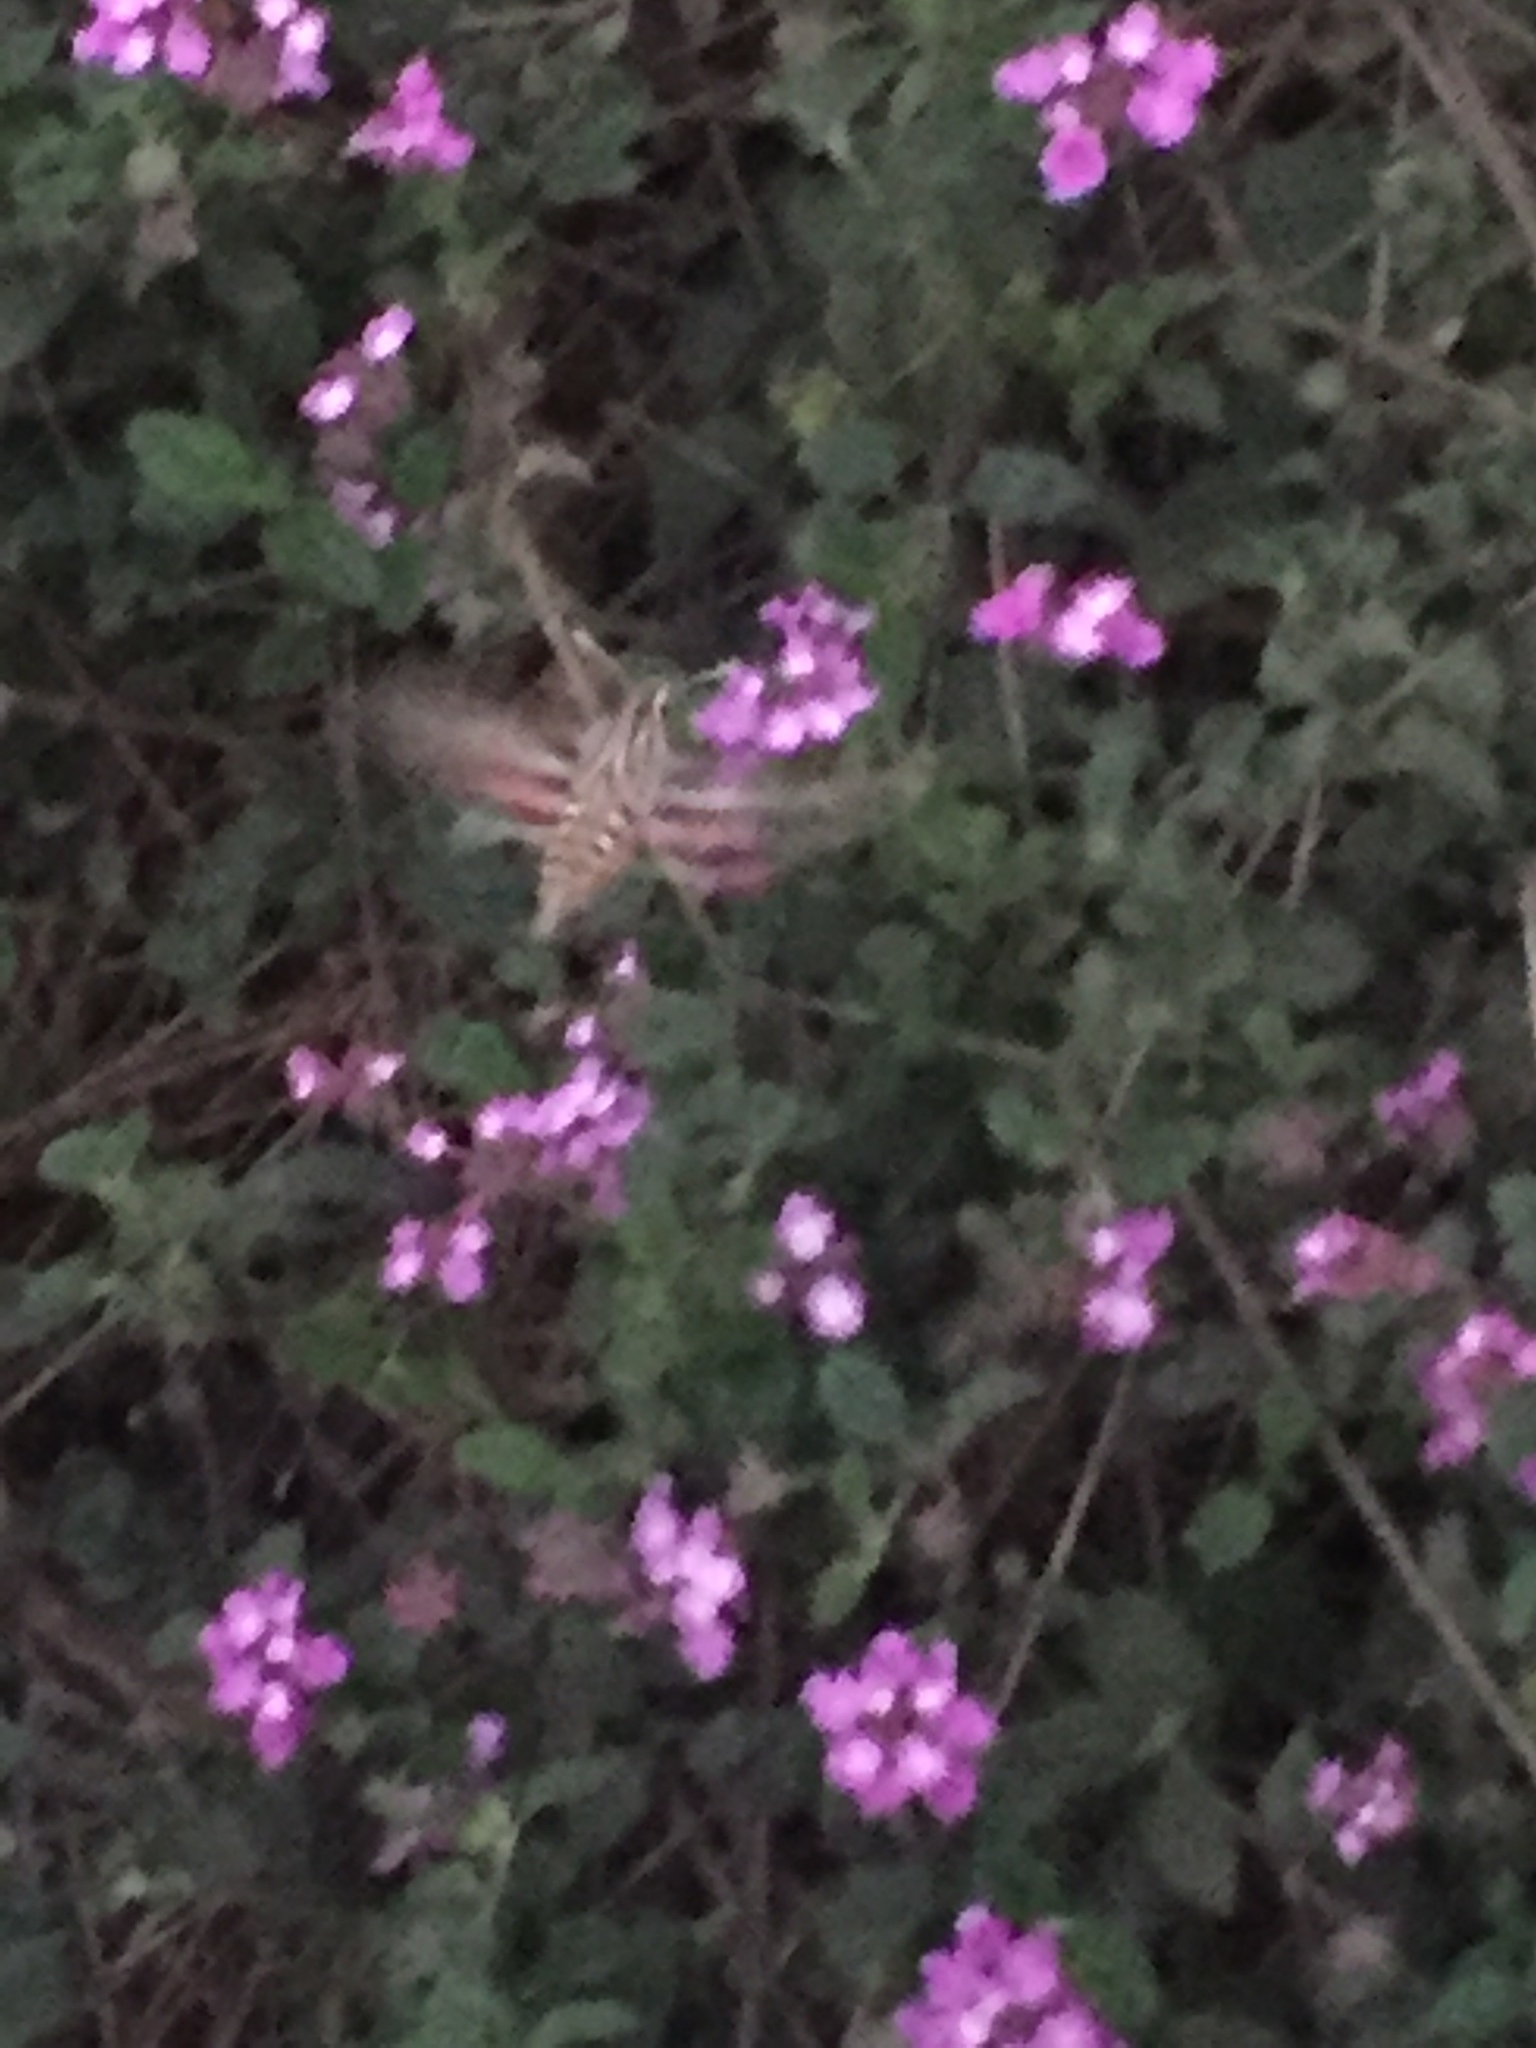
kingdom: Animalia
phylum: Arthropoda
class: Insecta
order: Lepidoptera
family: Sphingidae
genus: Hyles
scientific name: Hyles lineata
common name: White-lined sphinx
